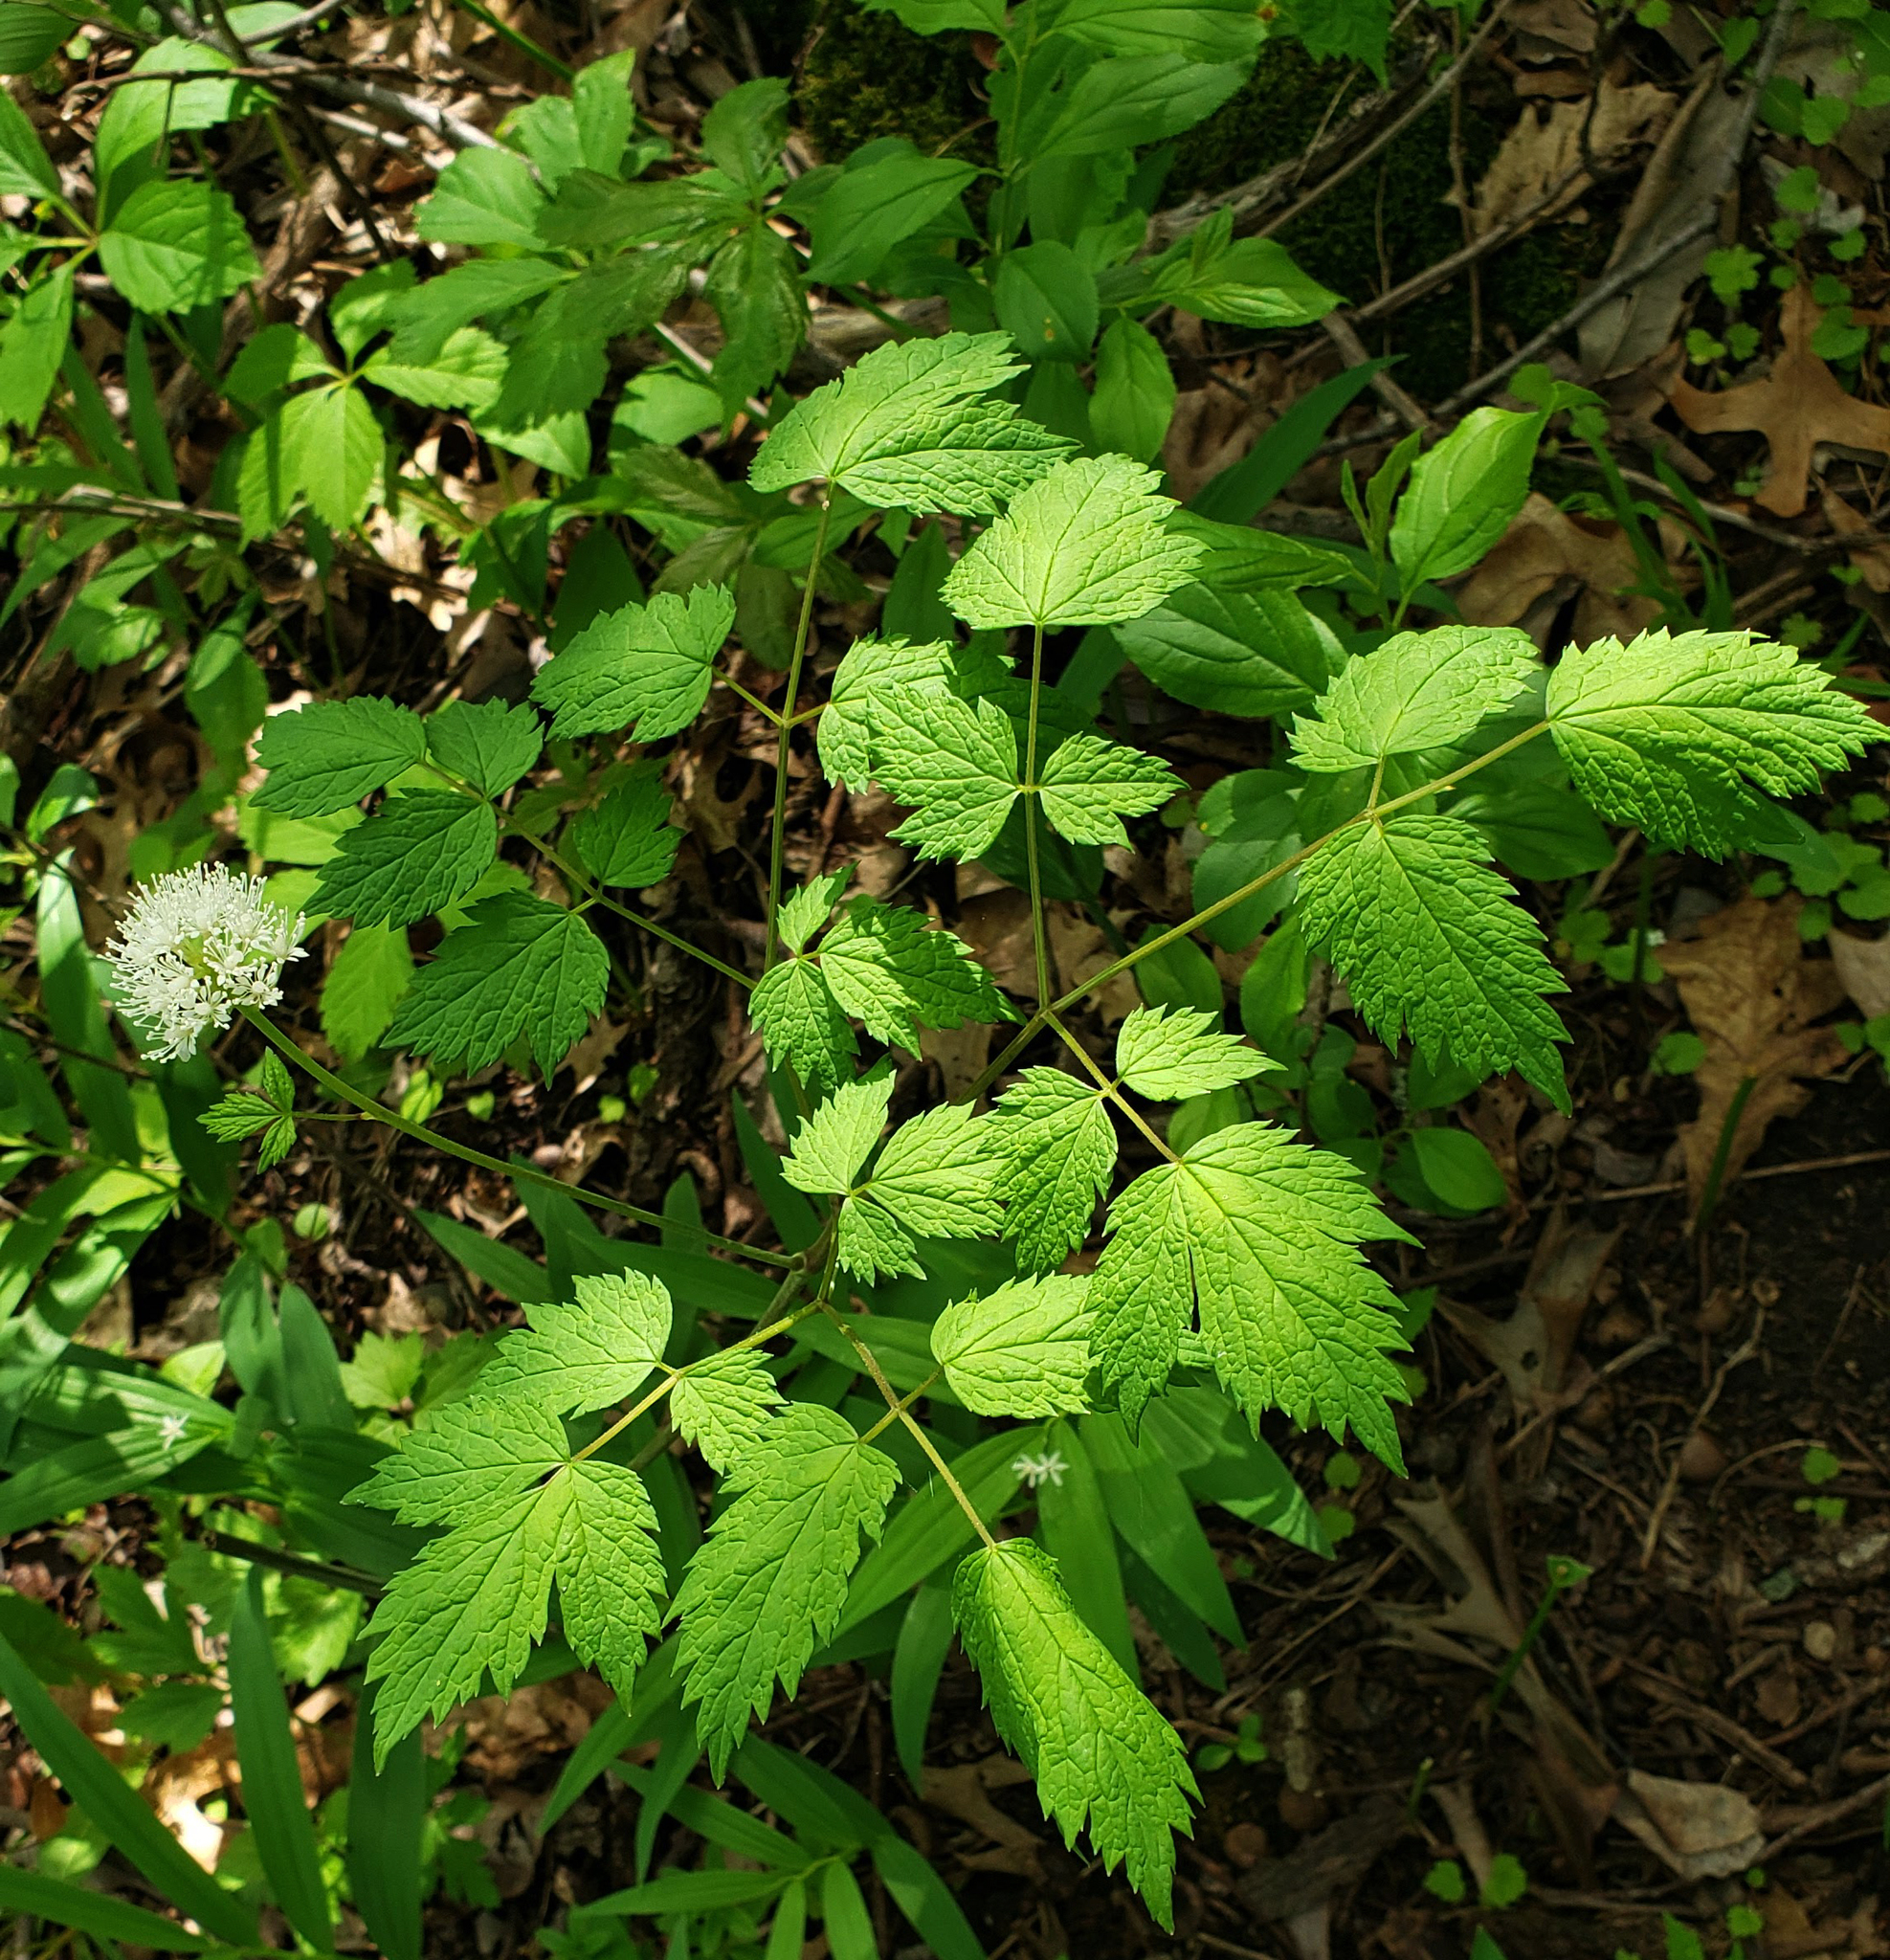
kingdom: Plantae
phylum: Tracheophyta
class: Magnoliopsida
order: Ranunculales
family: Ranunculaceae
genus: Actaea
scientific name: Actaea rubra
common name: Red baneberry
